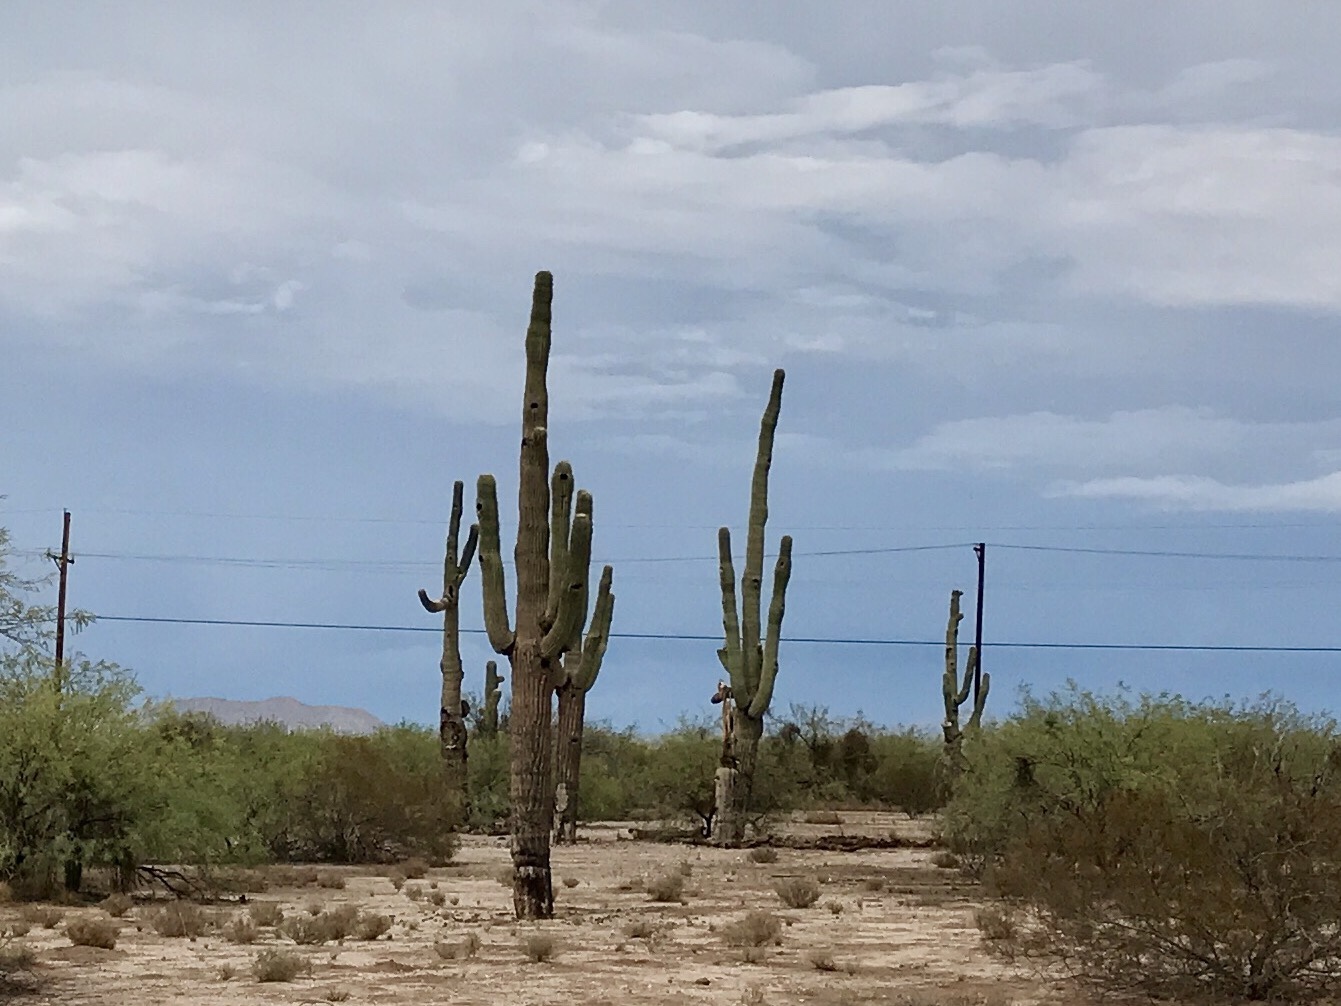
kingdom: Plantae
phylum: Tracheophyta
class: Magnoliopsida
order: Caryophyllales
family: Cactaceae
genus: Carnegiea
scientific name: Carnegiea gigantea
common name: Saguaro
